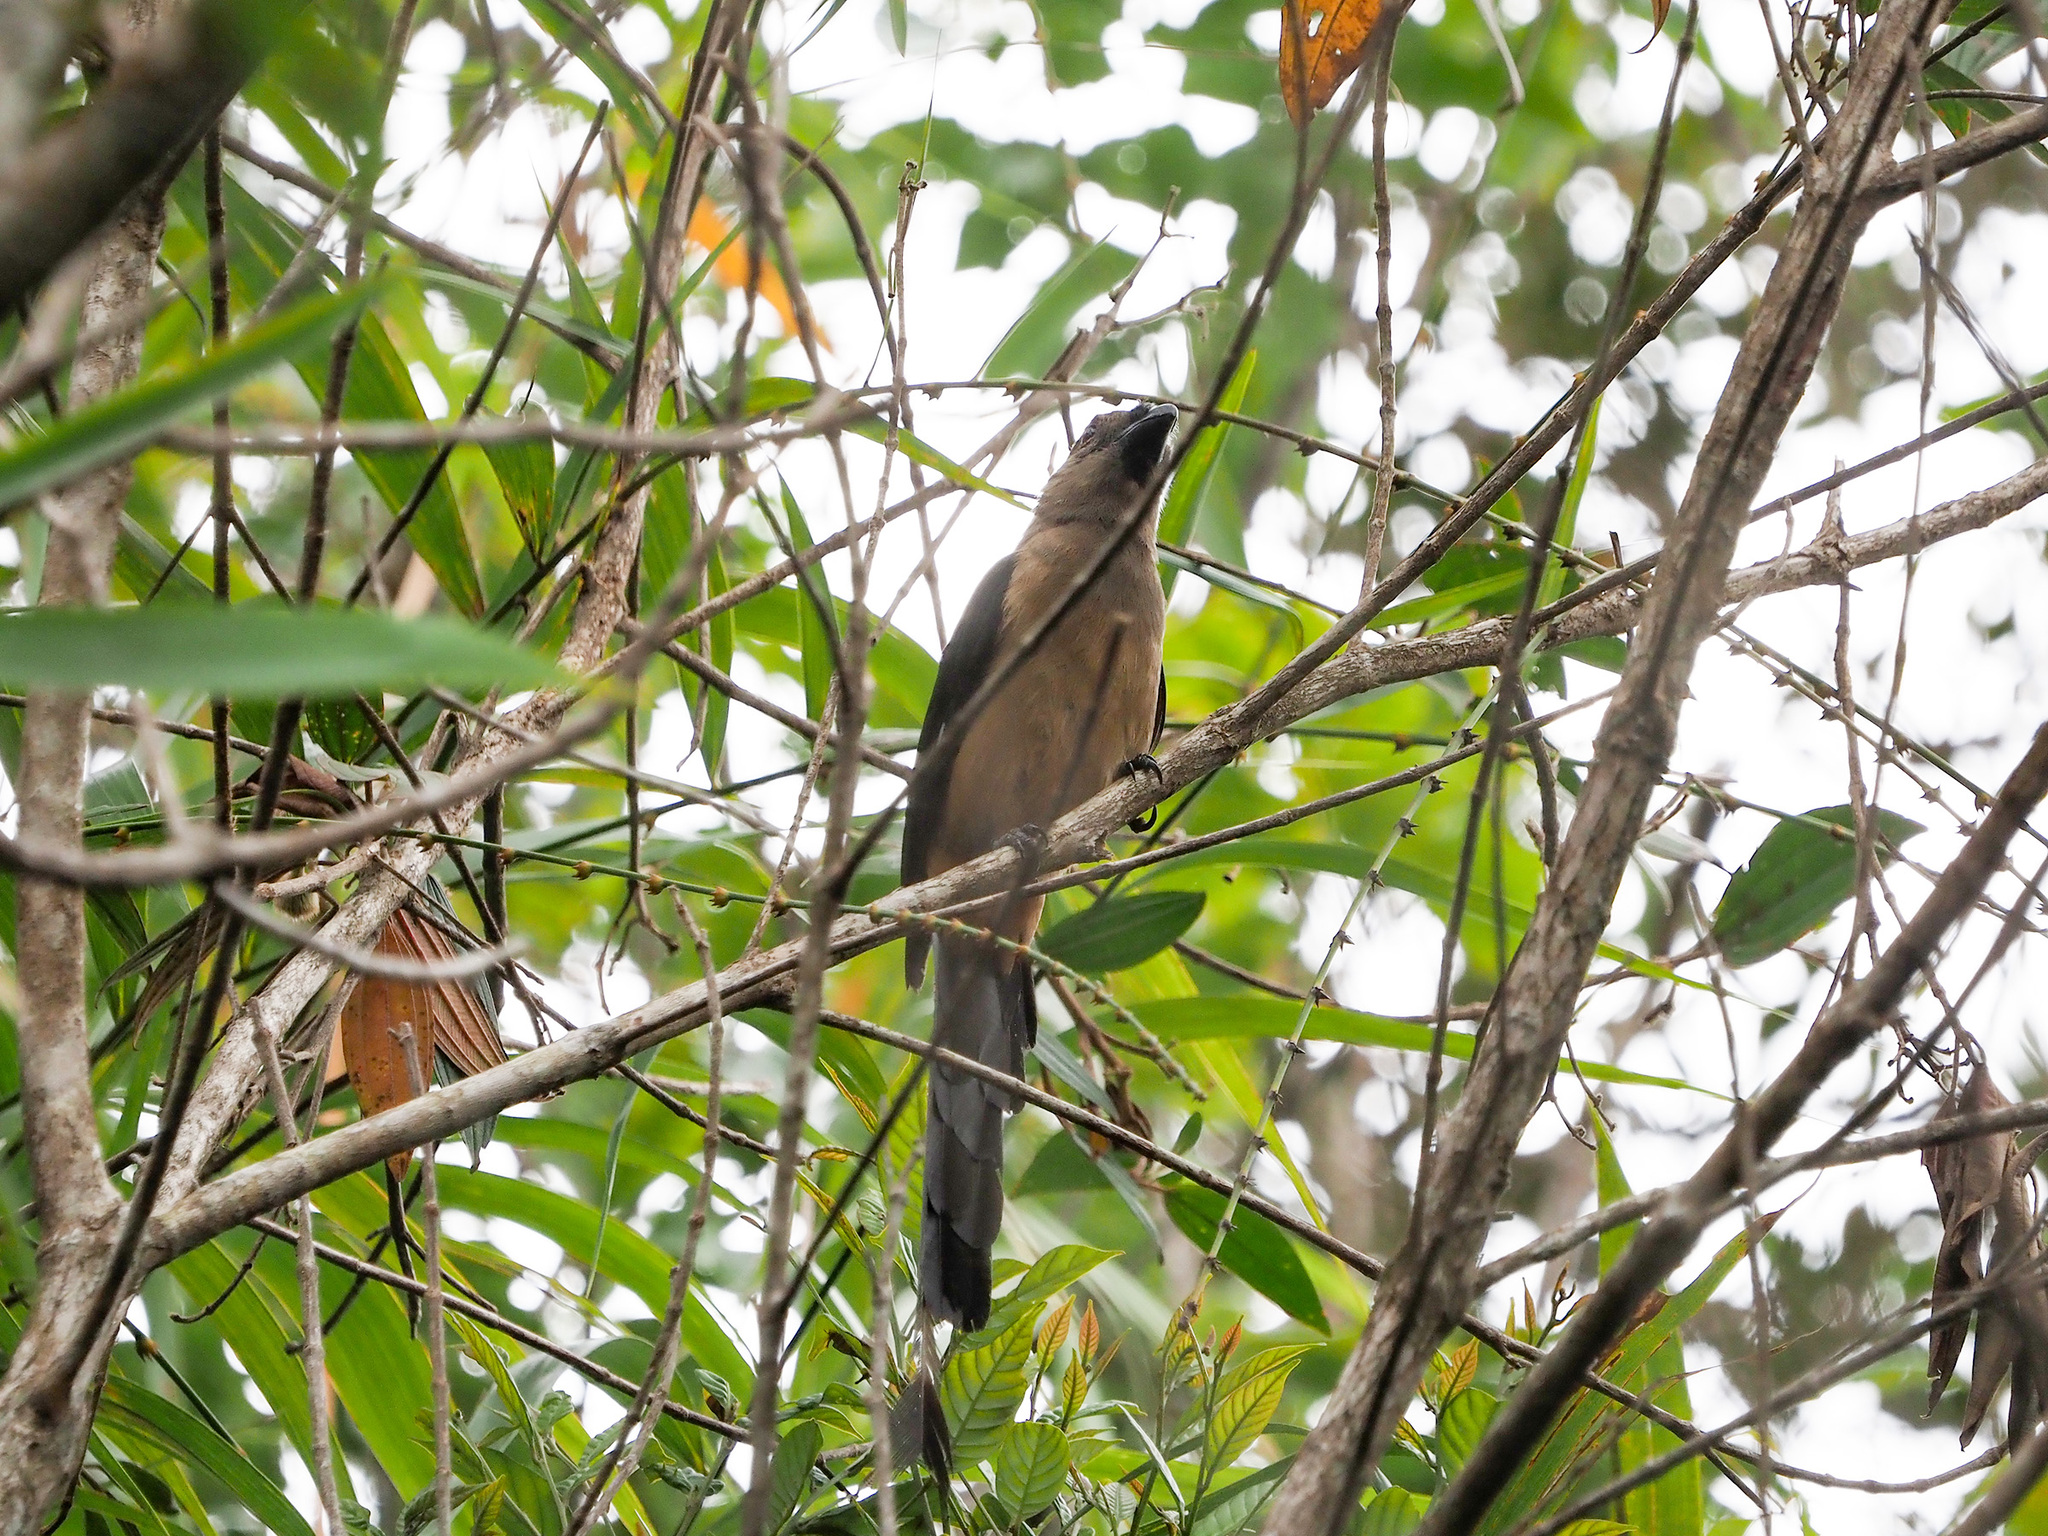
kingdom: Animalia
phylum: Chordata
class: Aves
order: Passeriformes
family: Corvidae
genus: Dendrocitta
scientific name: Dendrocitta cinerascens
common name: Bornean treepie
